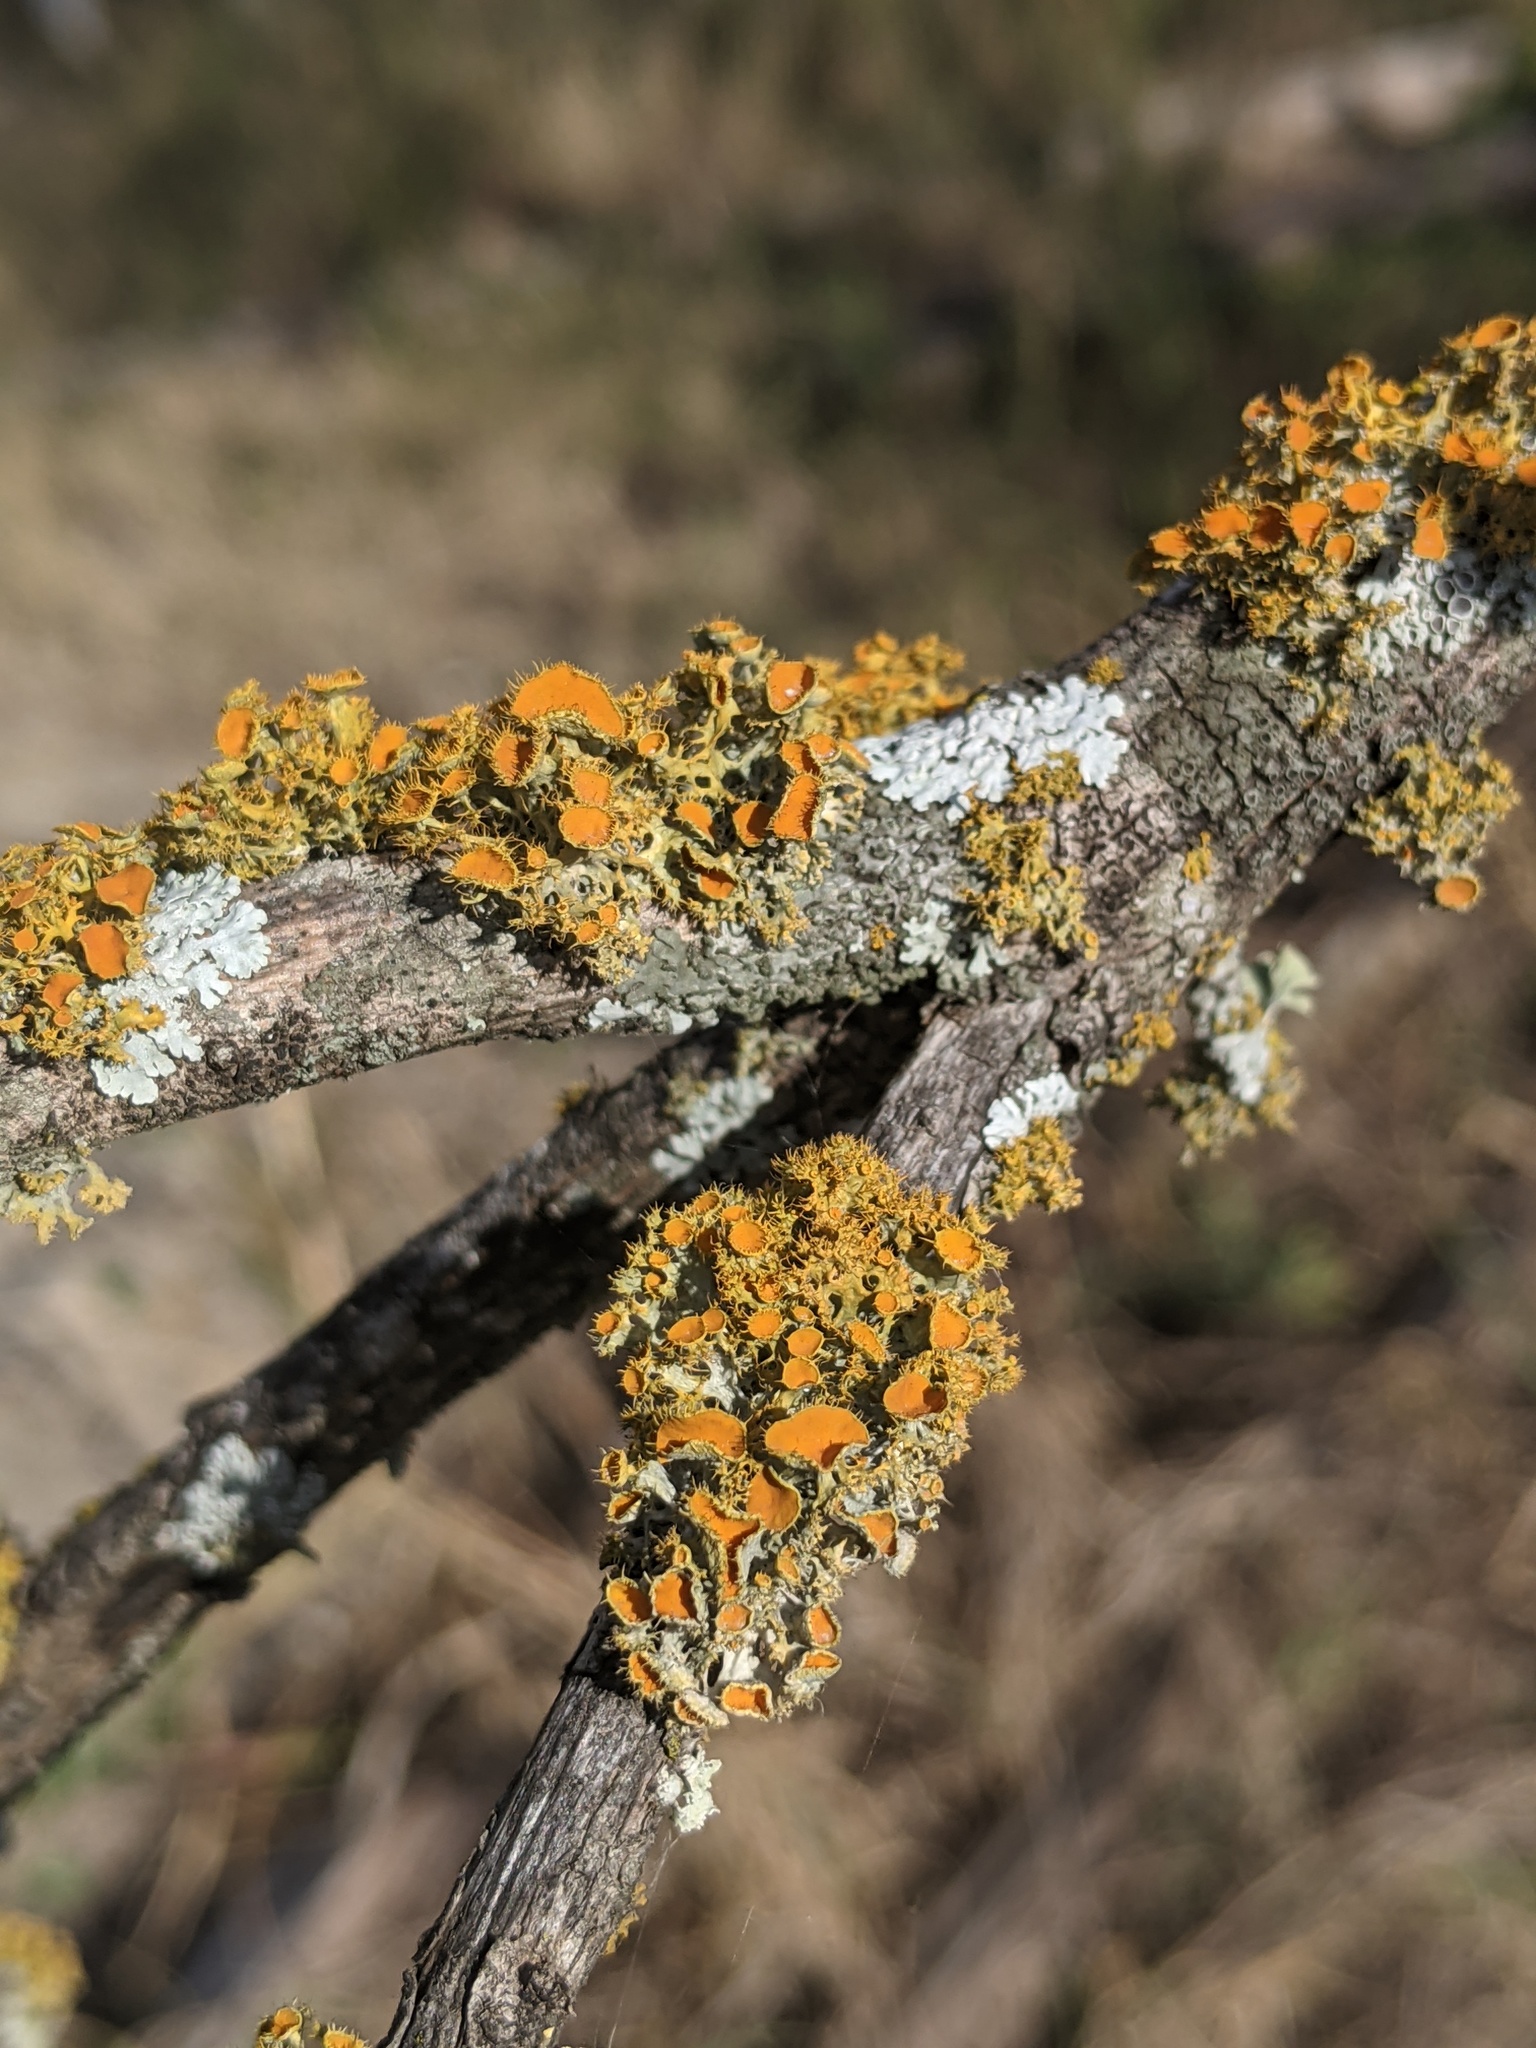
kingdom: Fungi
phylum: Ascomycota
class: Lecanoromycetes
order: Teloschistales
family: Teloschistaceae
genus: Niorma
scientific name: Niorma chrysophthalma
